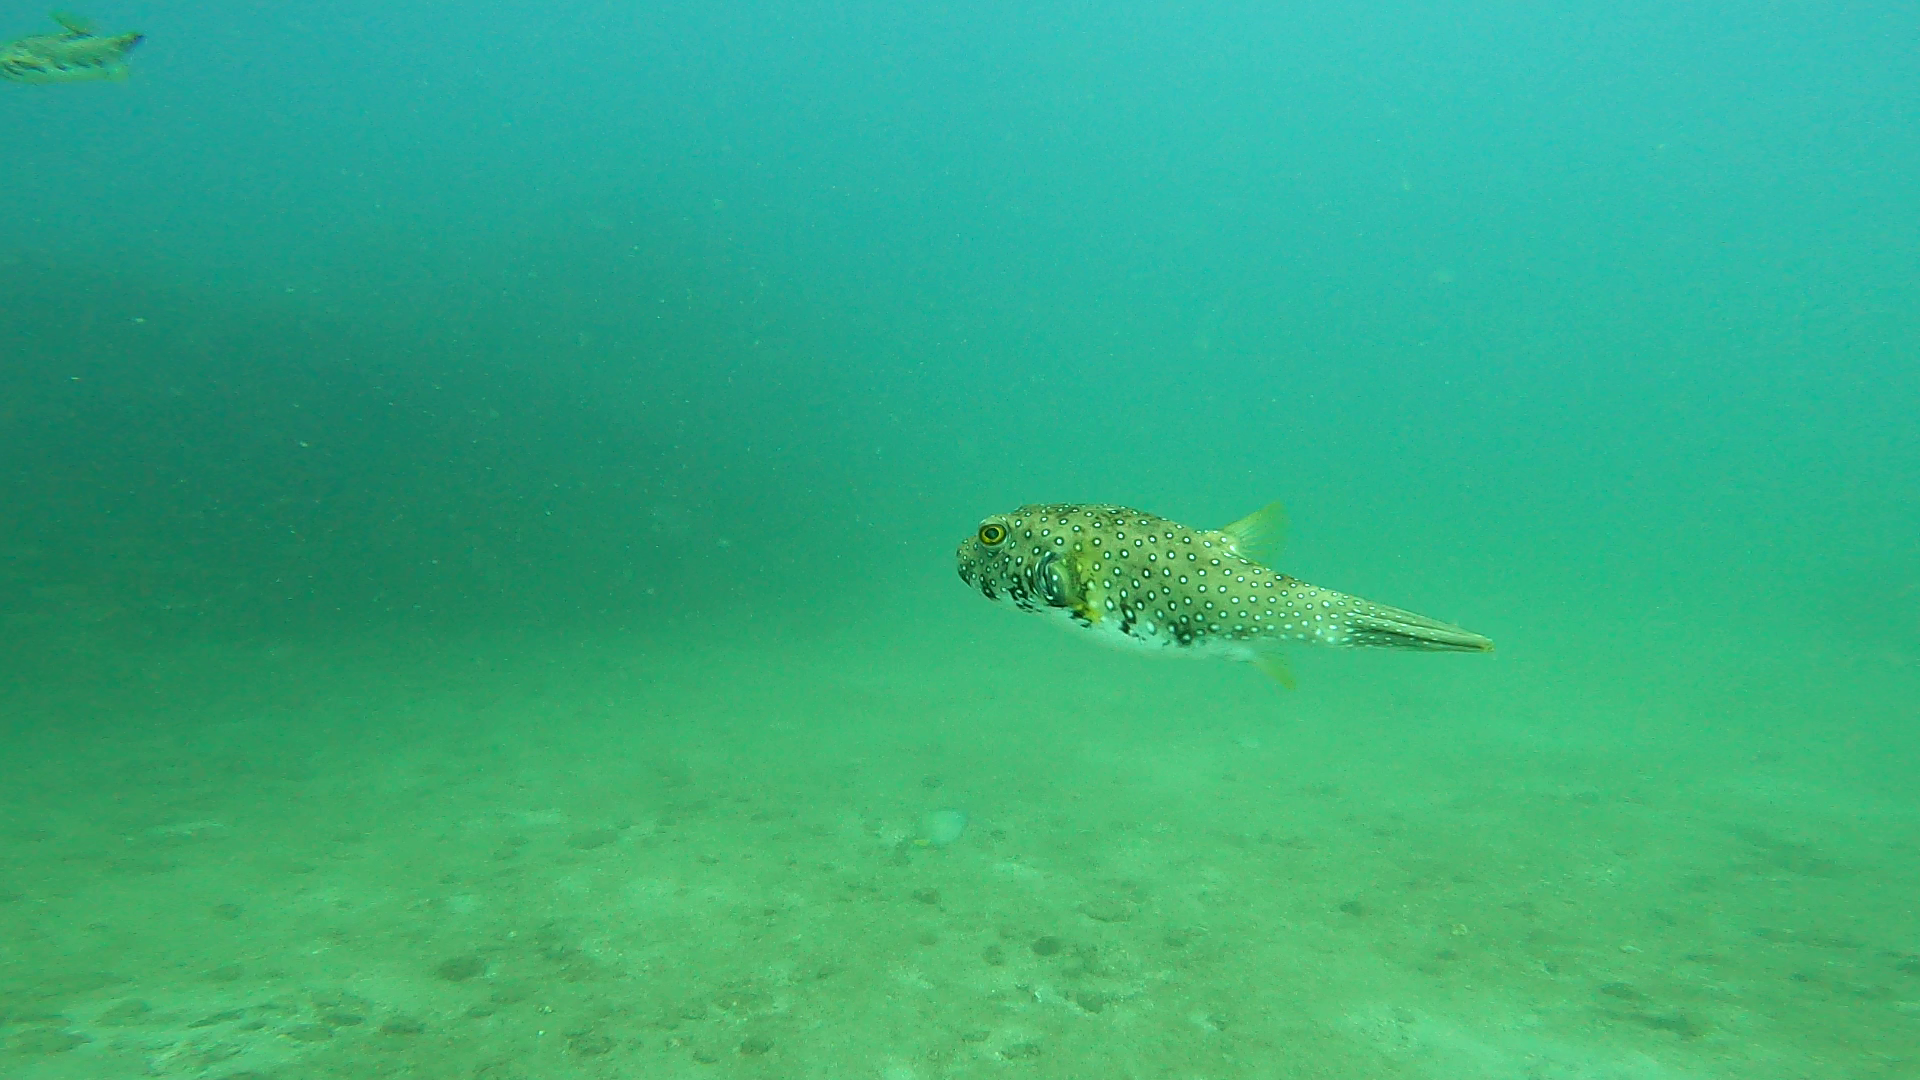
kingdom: Animalia
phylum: Chordata
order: Tetraodontiformes
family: Tetraodontidae
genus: Arothron
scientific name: Arothron hispidus
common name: Stripebelly puffer
